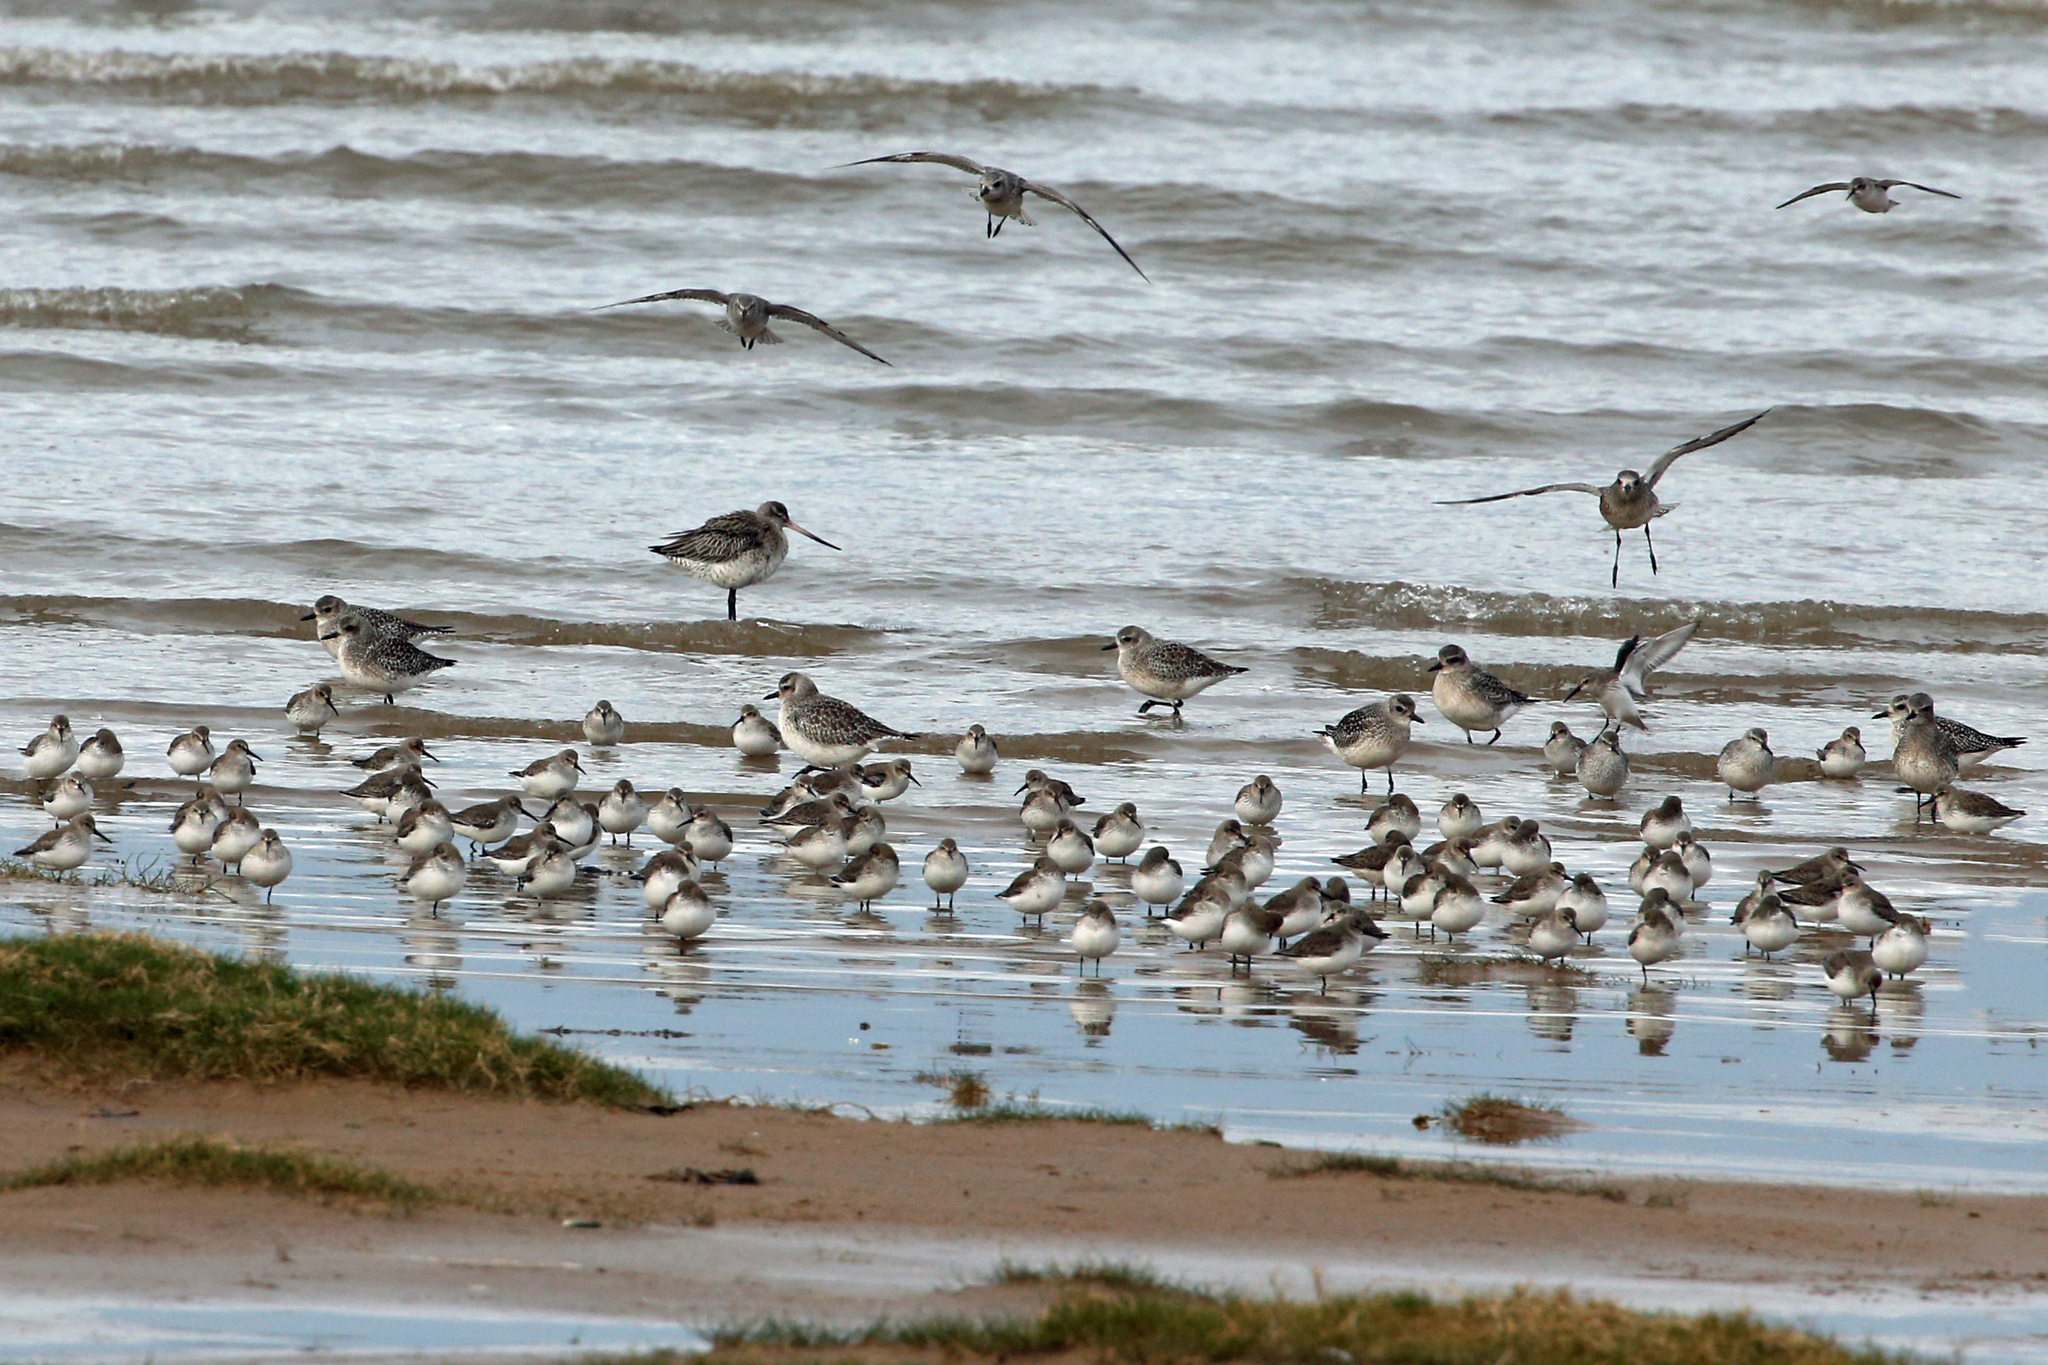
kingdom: Animalia
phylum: Chordata
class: Aves
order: Charadriiformes
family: Scolopacidae
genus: Limosa
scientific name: Limosa lapponica
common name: Bar-tailed godwit
